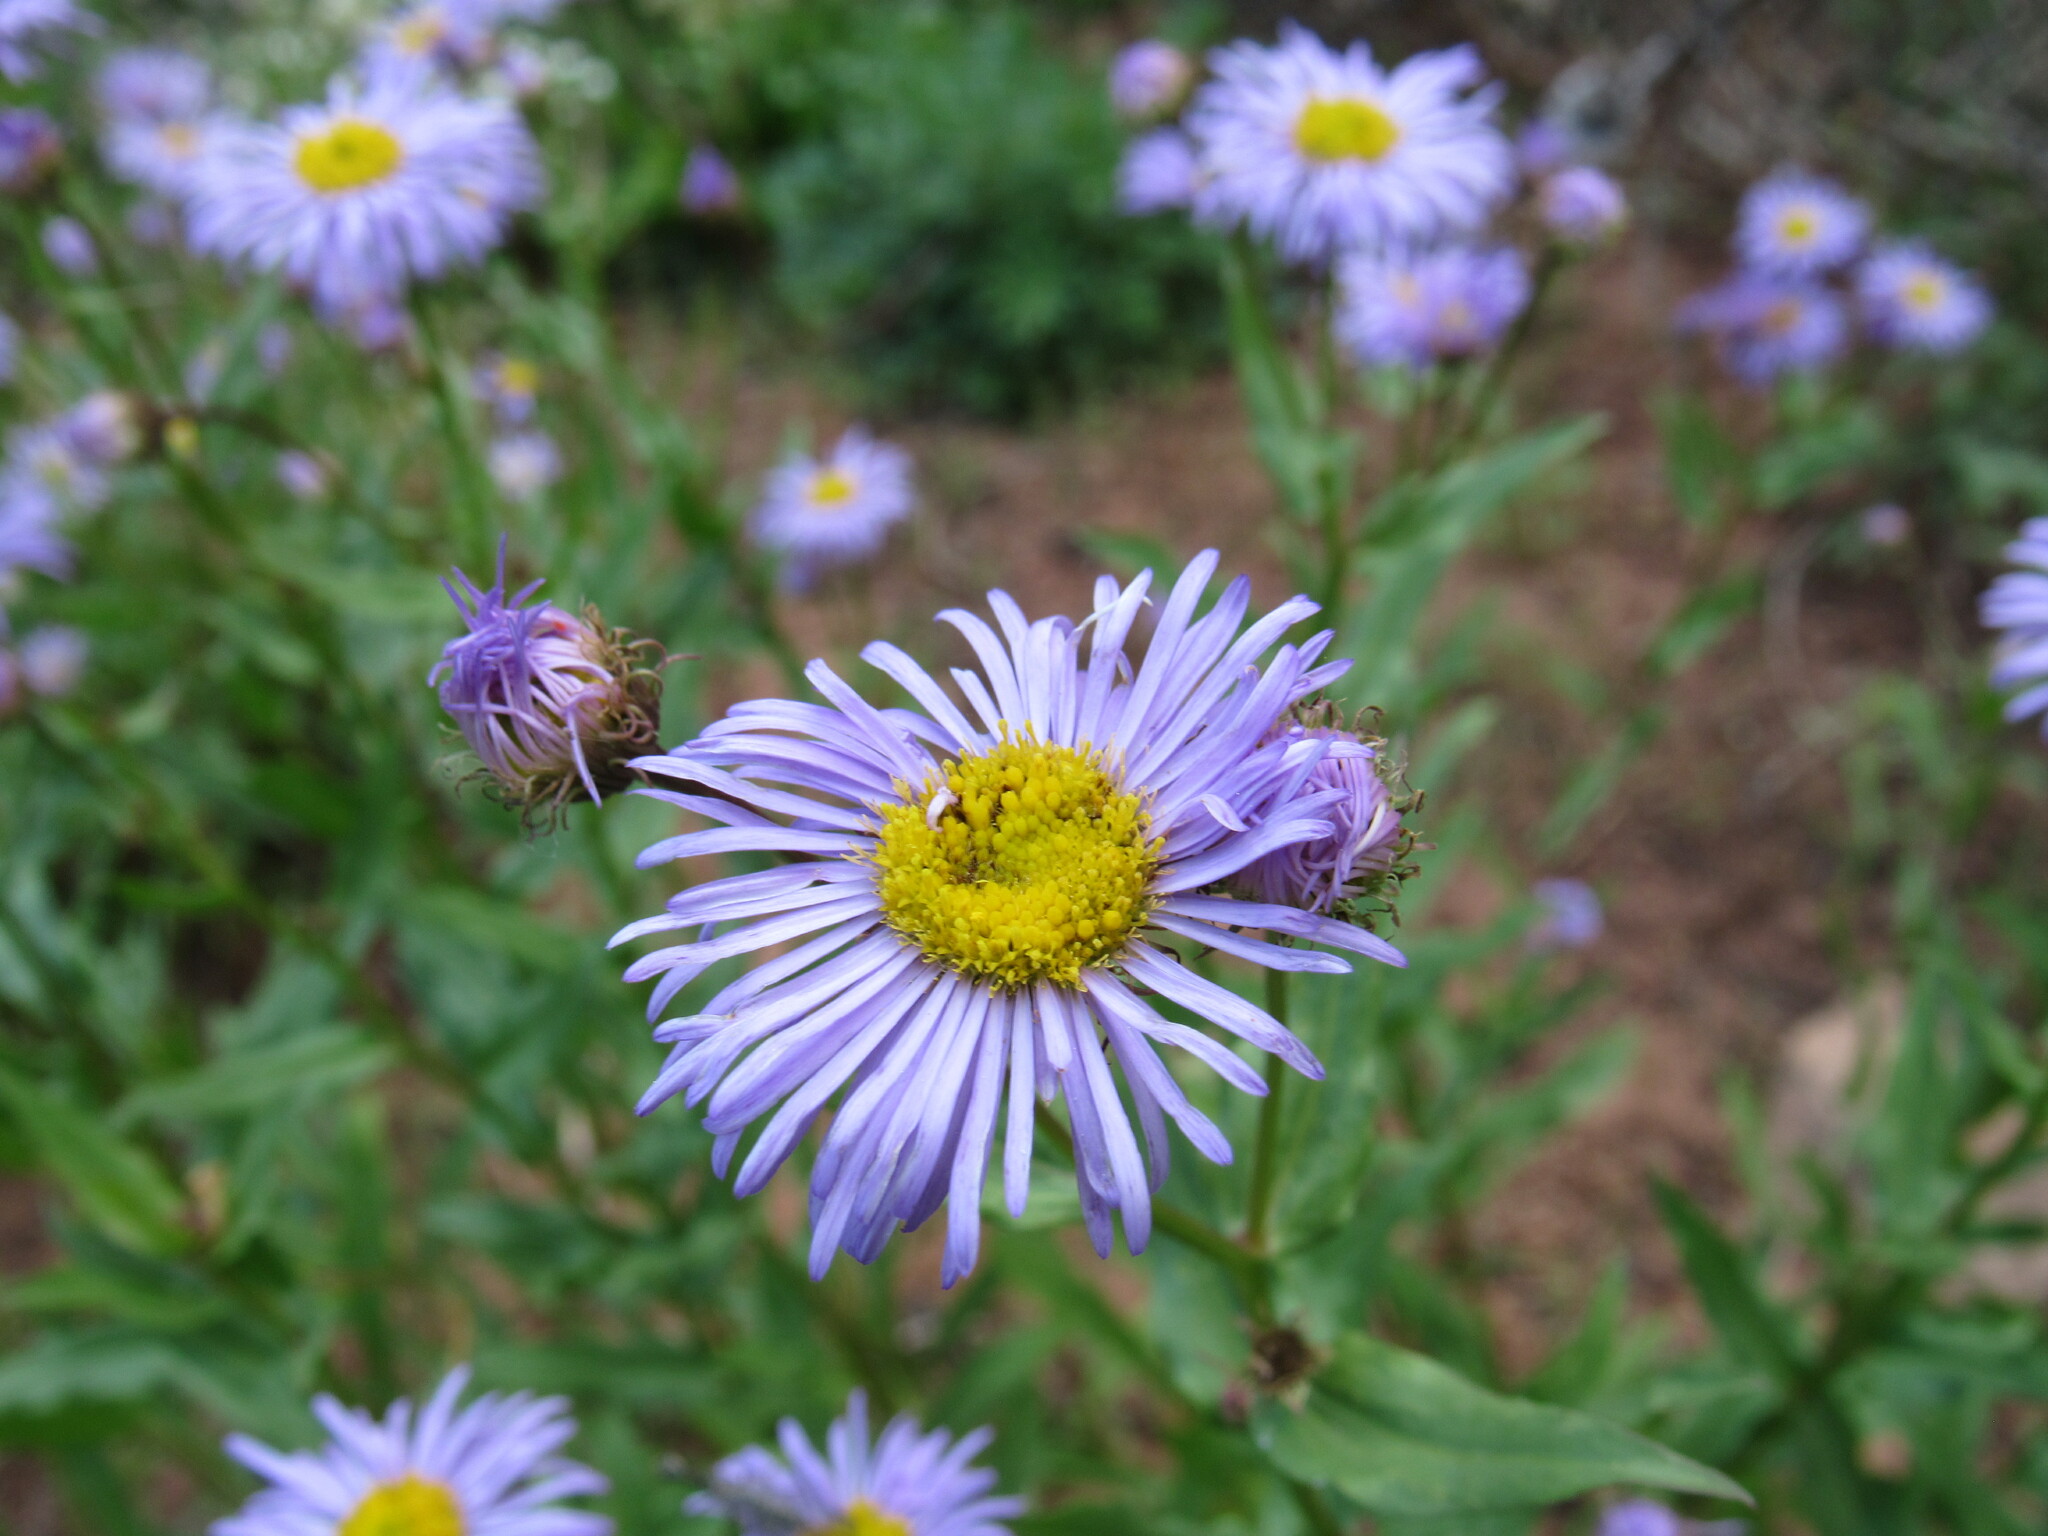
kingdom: Plantae
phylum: Tracheophyta
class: Magnoliopsida
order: Asterales
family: Asteraceae
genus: Erigeron
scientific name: Erigeron speciosus
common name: Aspen fleabane
